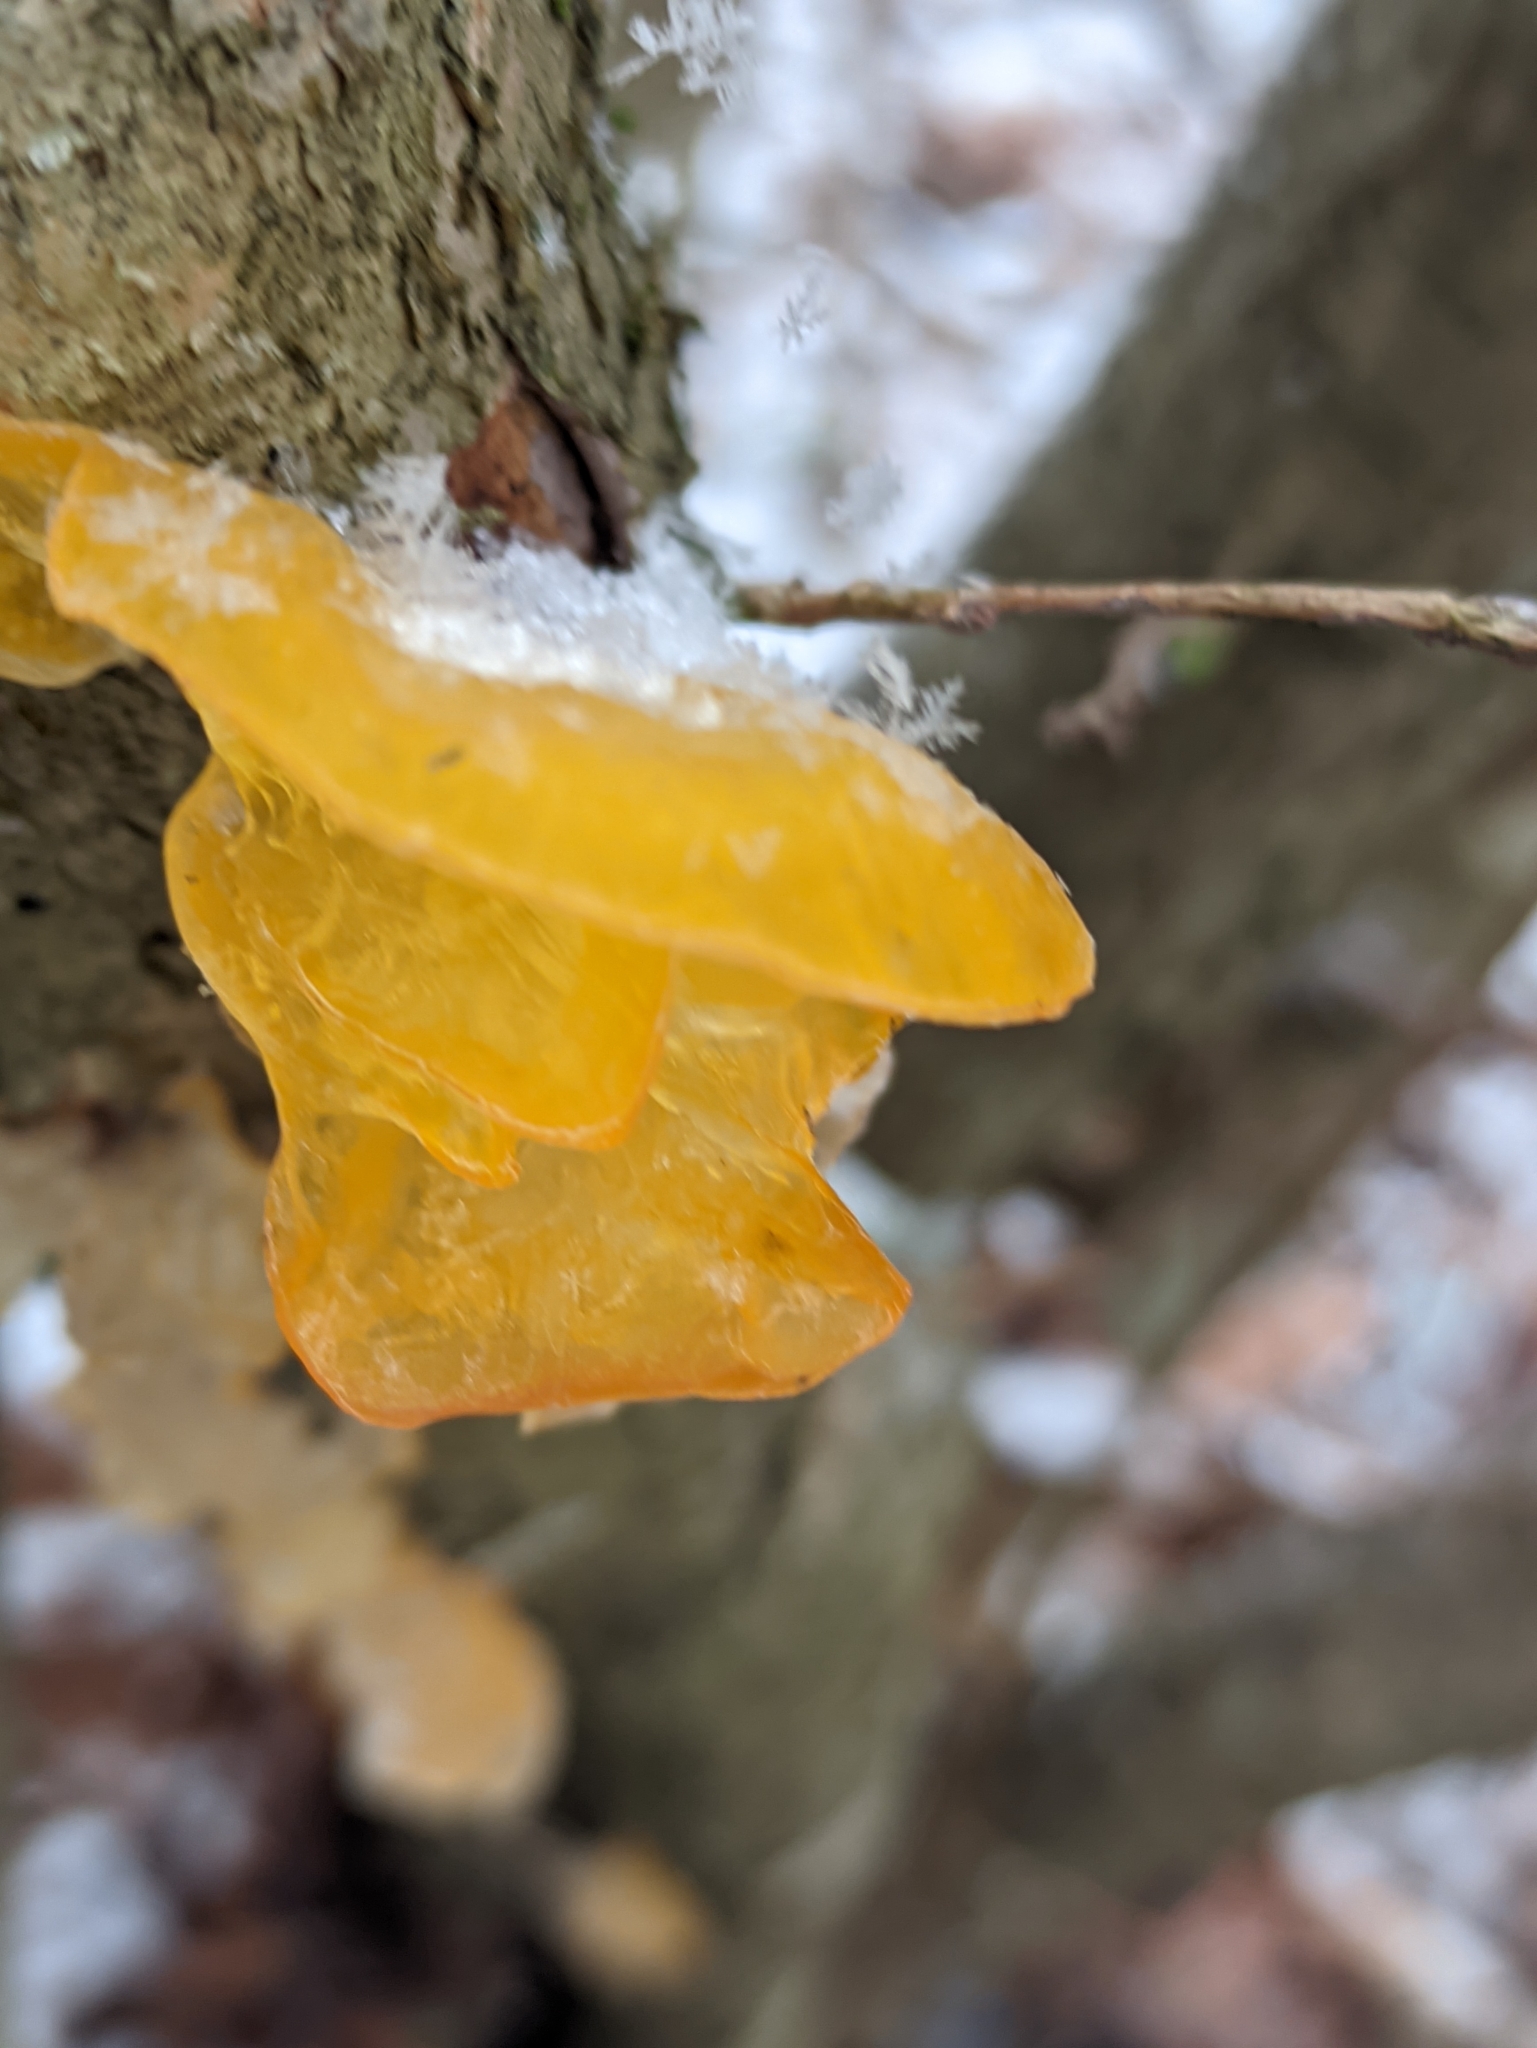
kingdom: Fungi
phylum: Basidiomycota
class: Tremellomycetes
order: Tremellales
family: Tremellaceae
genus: Tremella
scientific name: Tremella mesenterica
